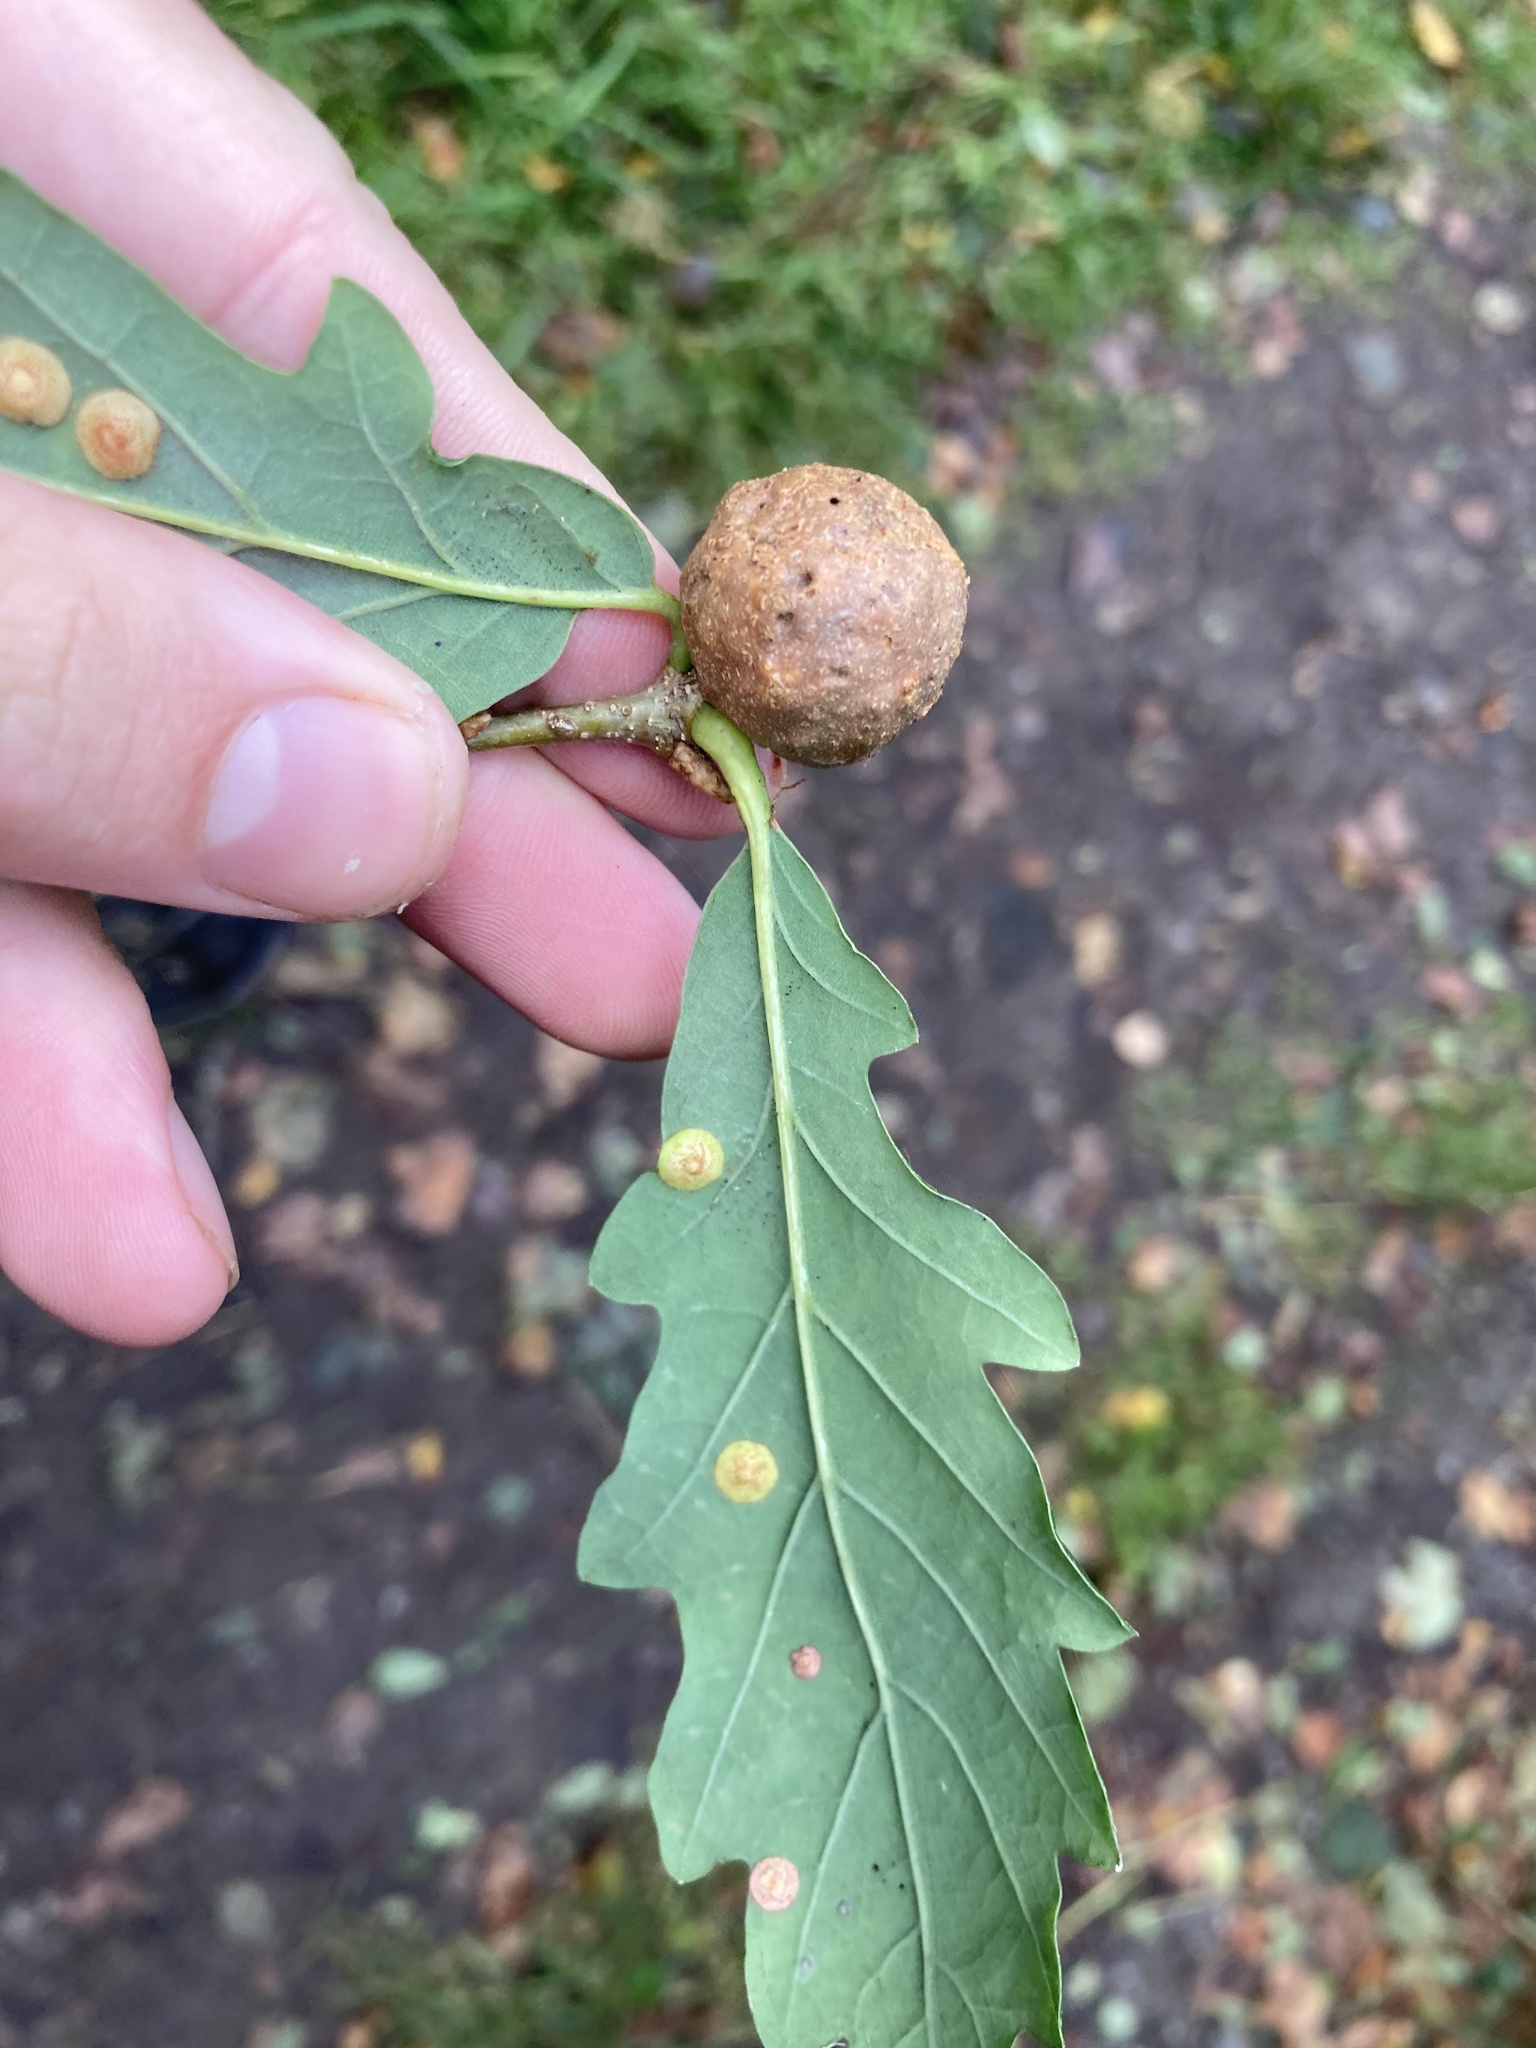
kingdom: Animalia
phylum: Arthropoda
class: Insecta
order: Hymenoptera
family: Cynipidae
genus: Andricus
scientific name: Andricus kollari
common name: Marble gall
